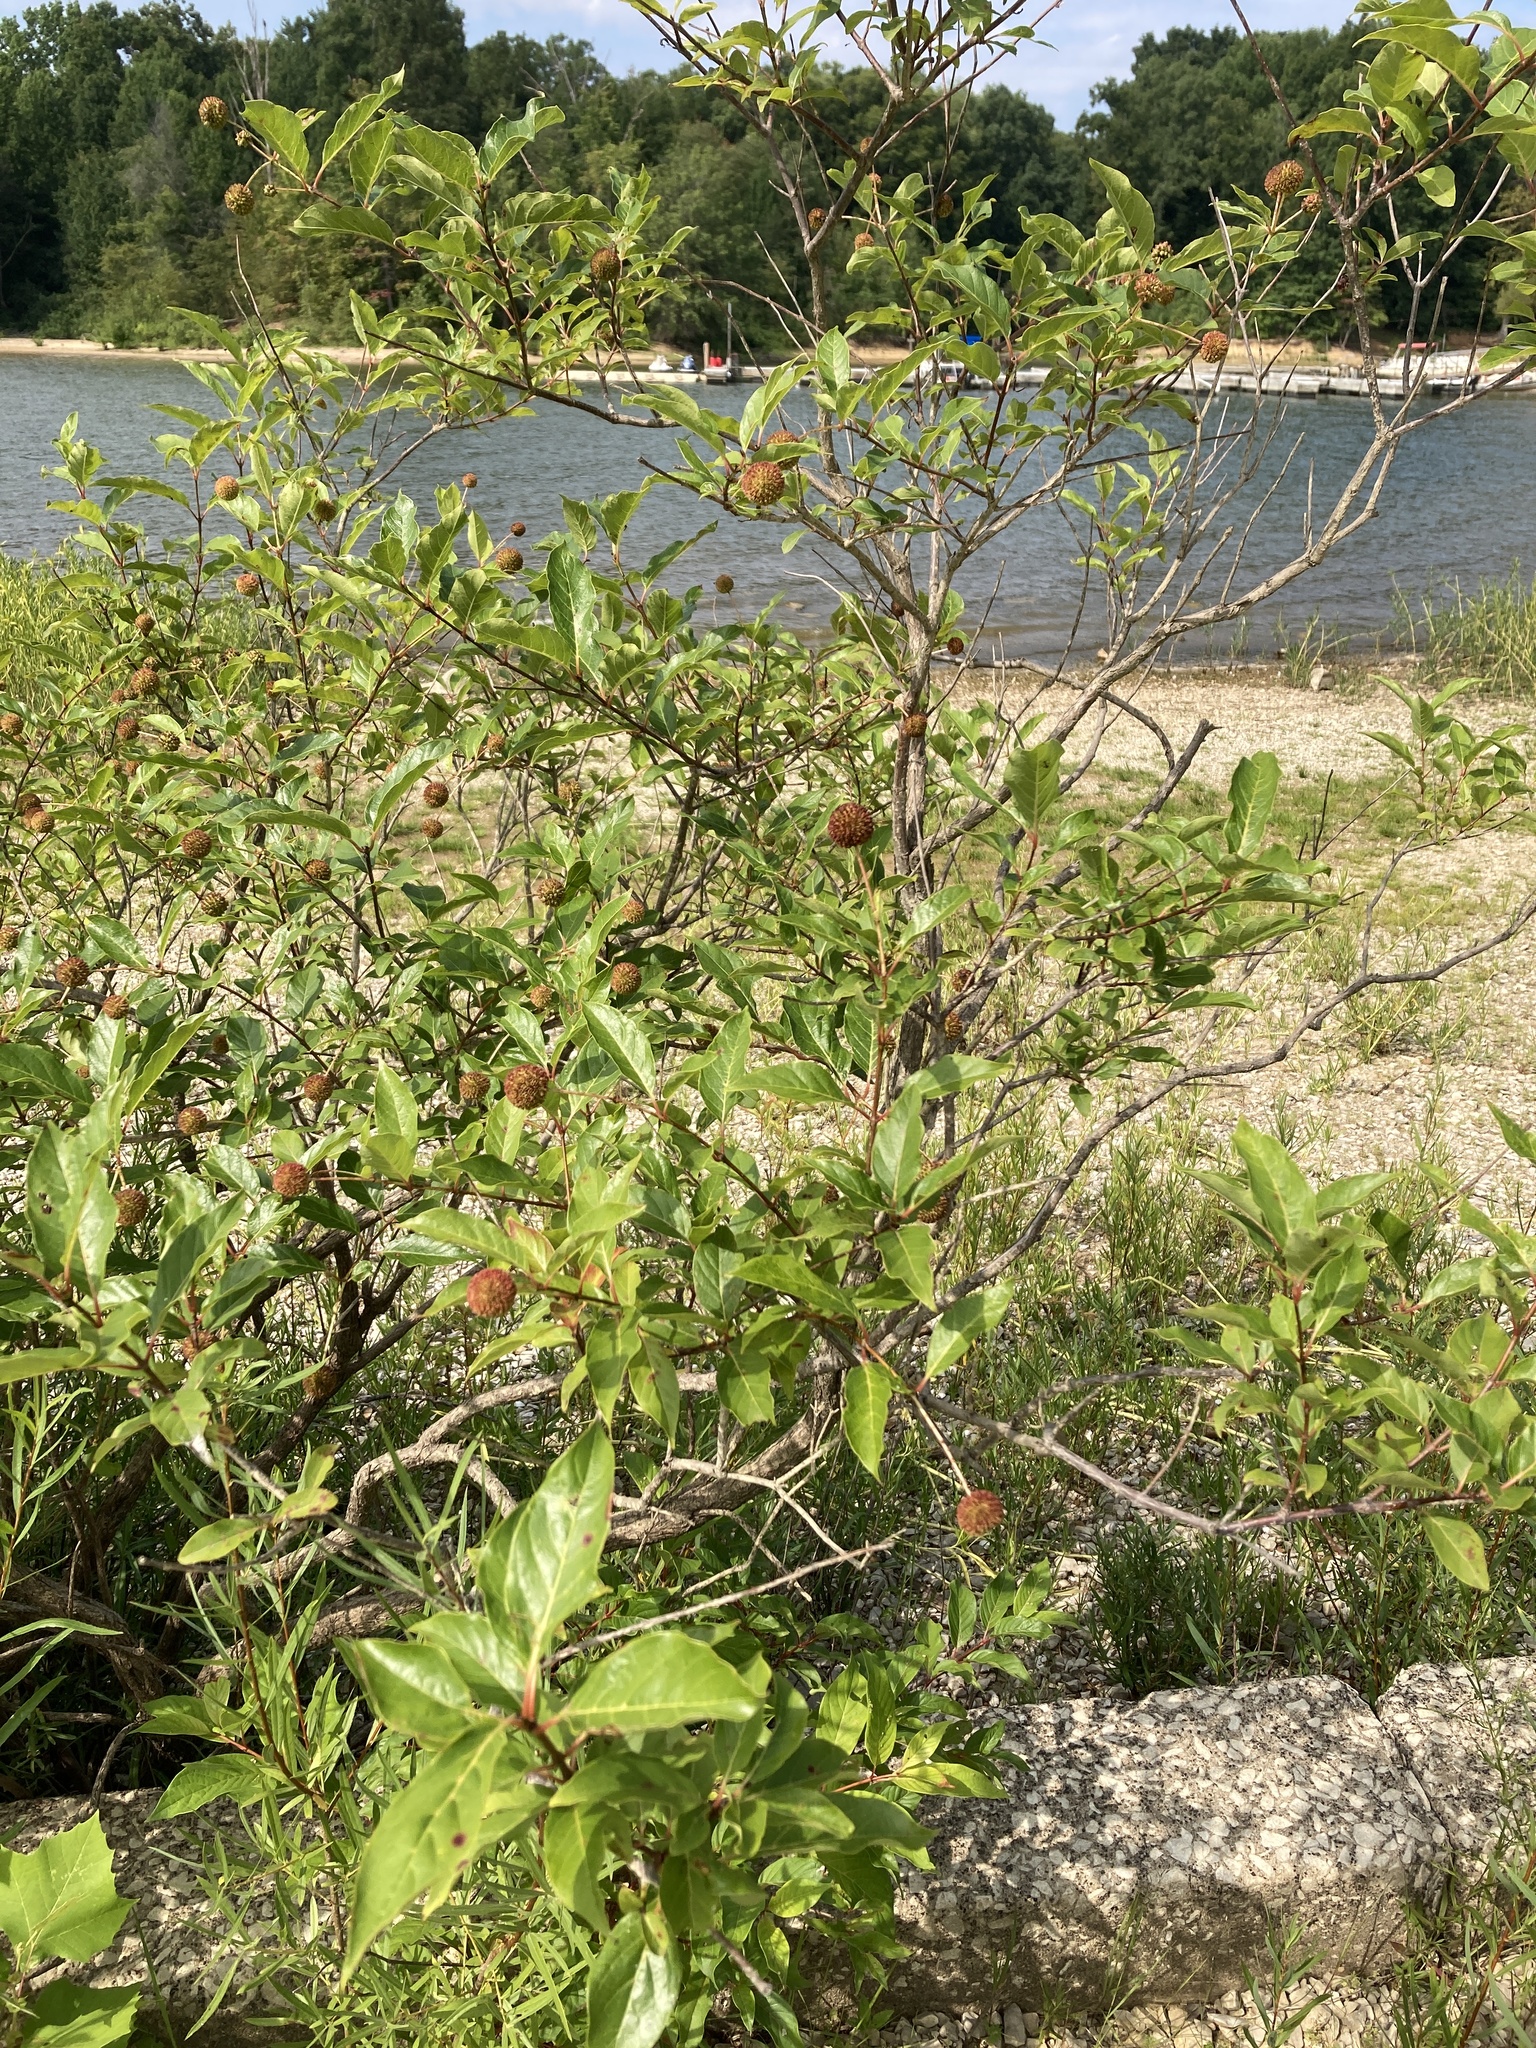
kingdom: Plantae
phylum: Tracheophyta
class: Magnoliopsida
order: Gentianales
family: Rubiaceae
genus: Cephalanthus
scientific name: Cephalanthus occidentalis
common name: Button-willow
